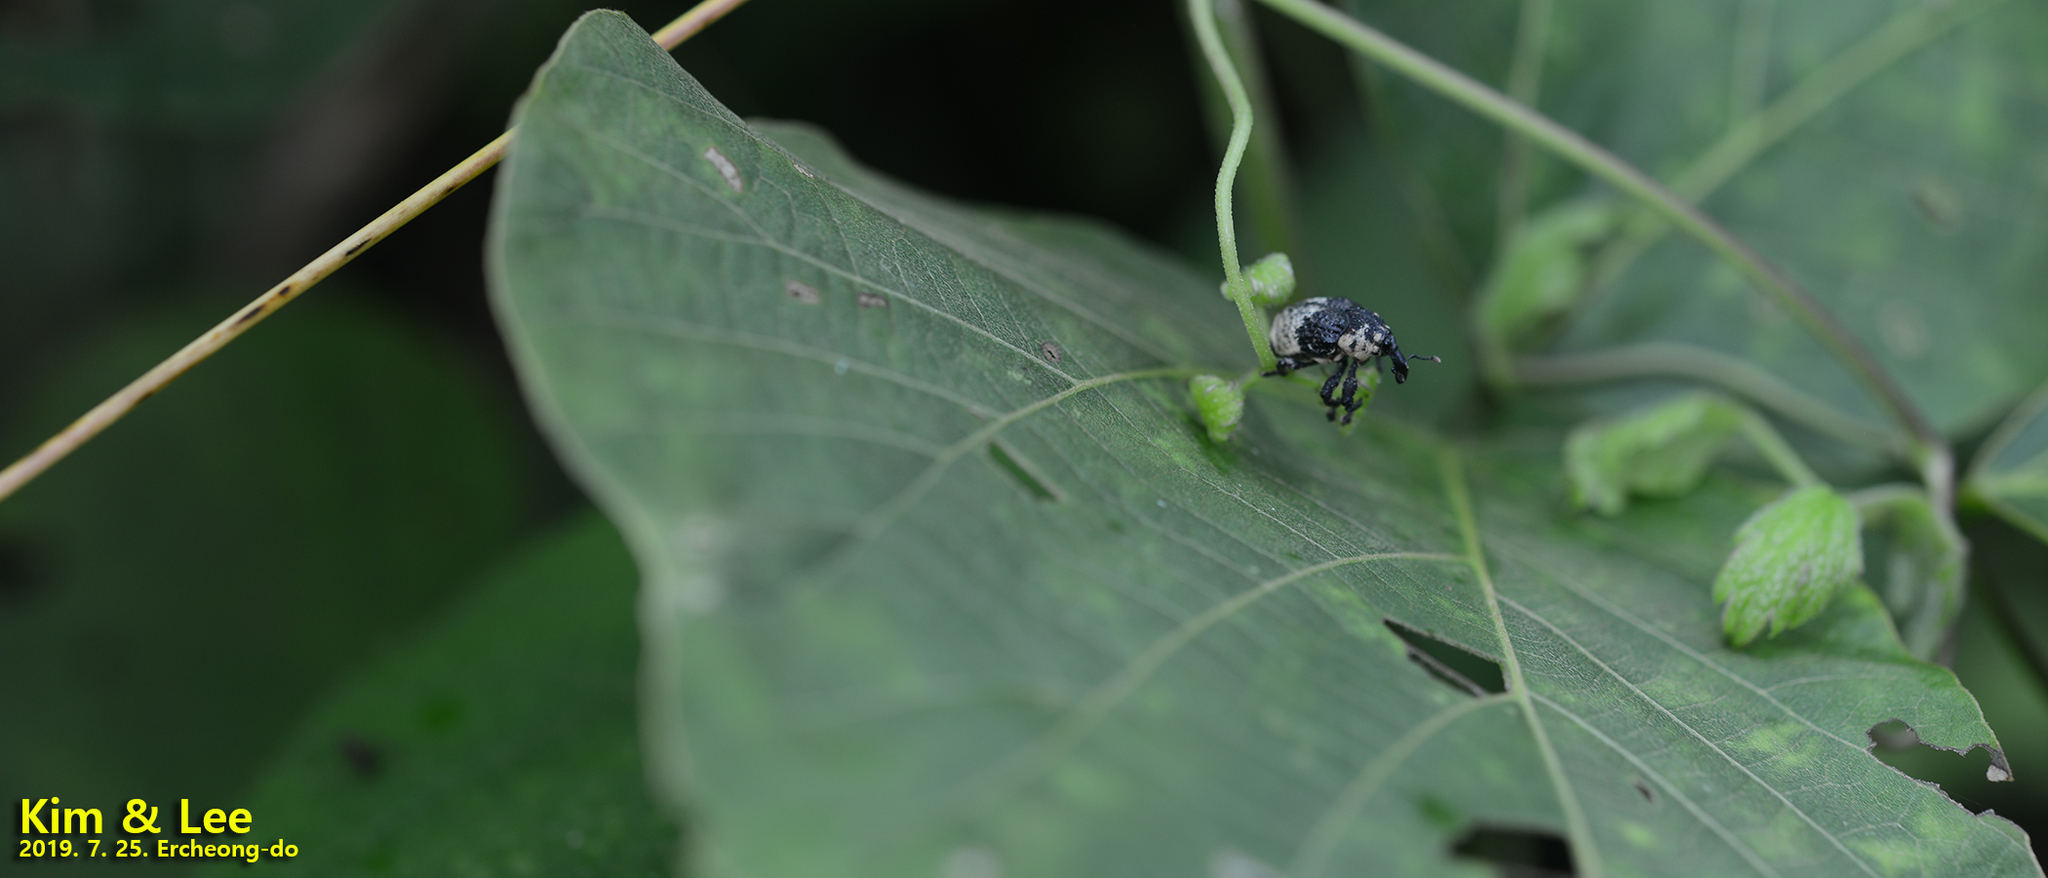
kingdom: Animalia
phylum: Arthropoda
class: Insecta
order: Coleoptera
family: Curculionidae
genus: Alcides
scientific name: Alcides trifidus
